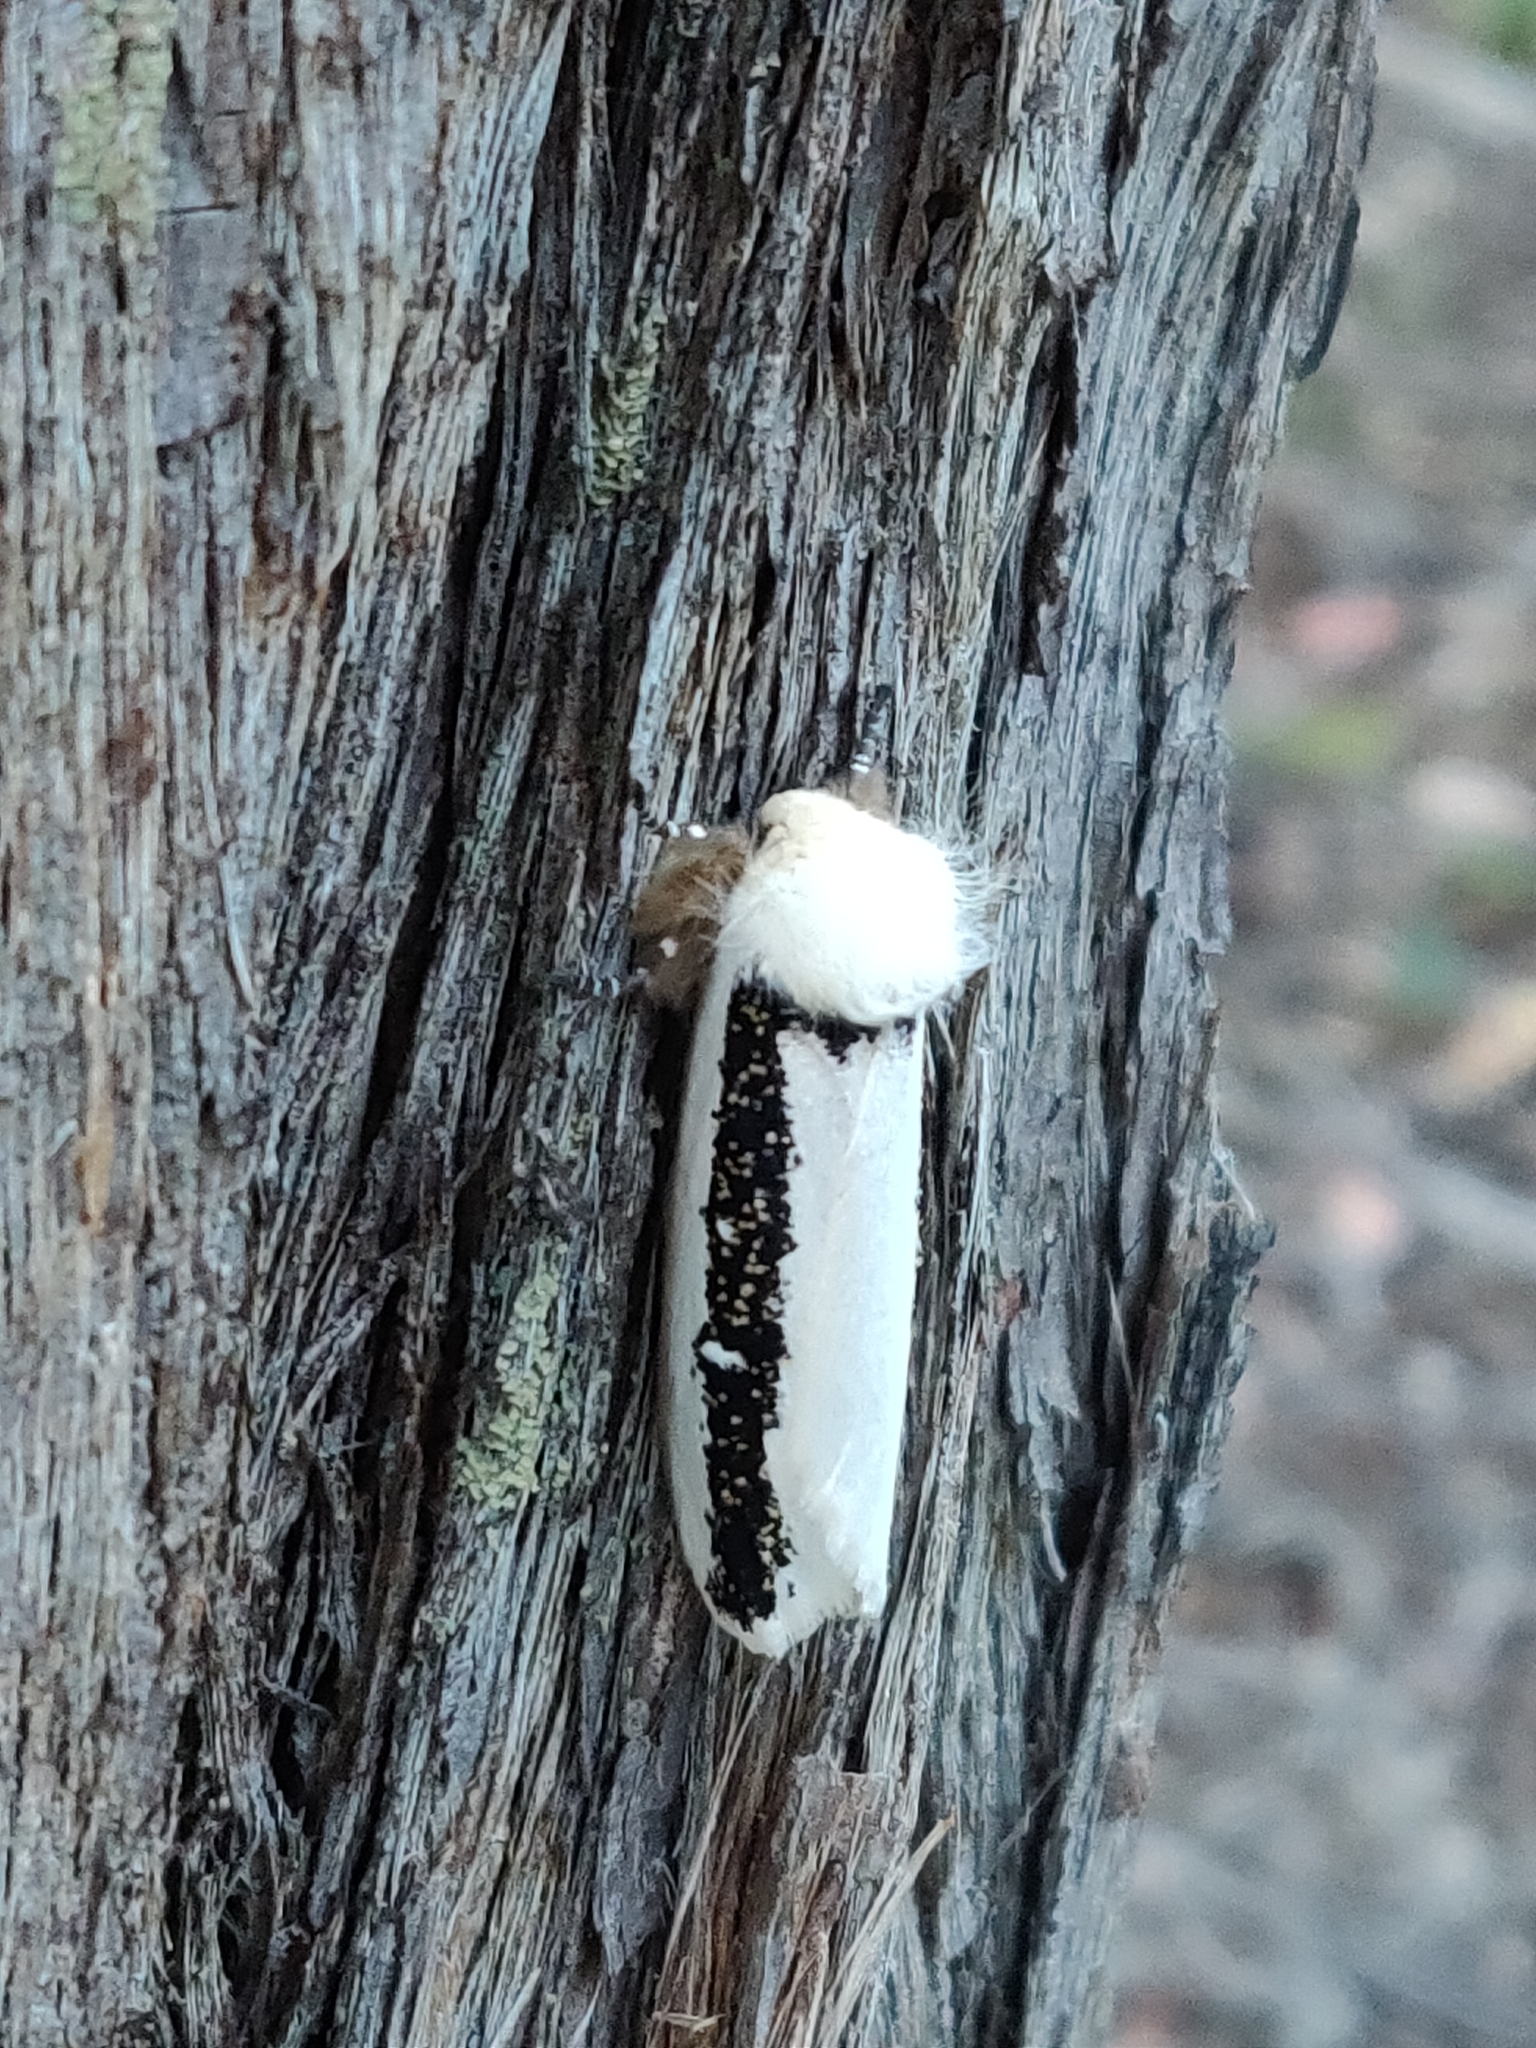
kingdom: Animalia
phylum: Arthropoda
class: Insecta
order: Lepidoptera
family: Oenosandridae
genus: Oenosandra
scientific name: Oenosandra boisduvalii
